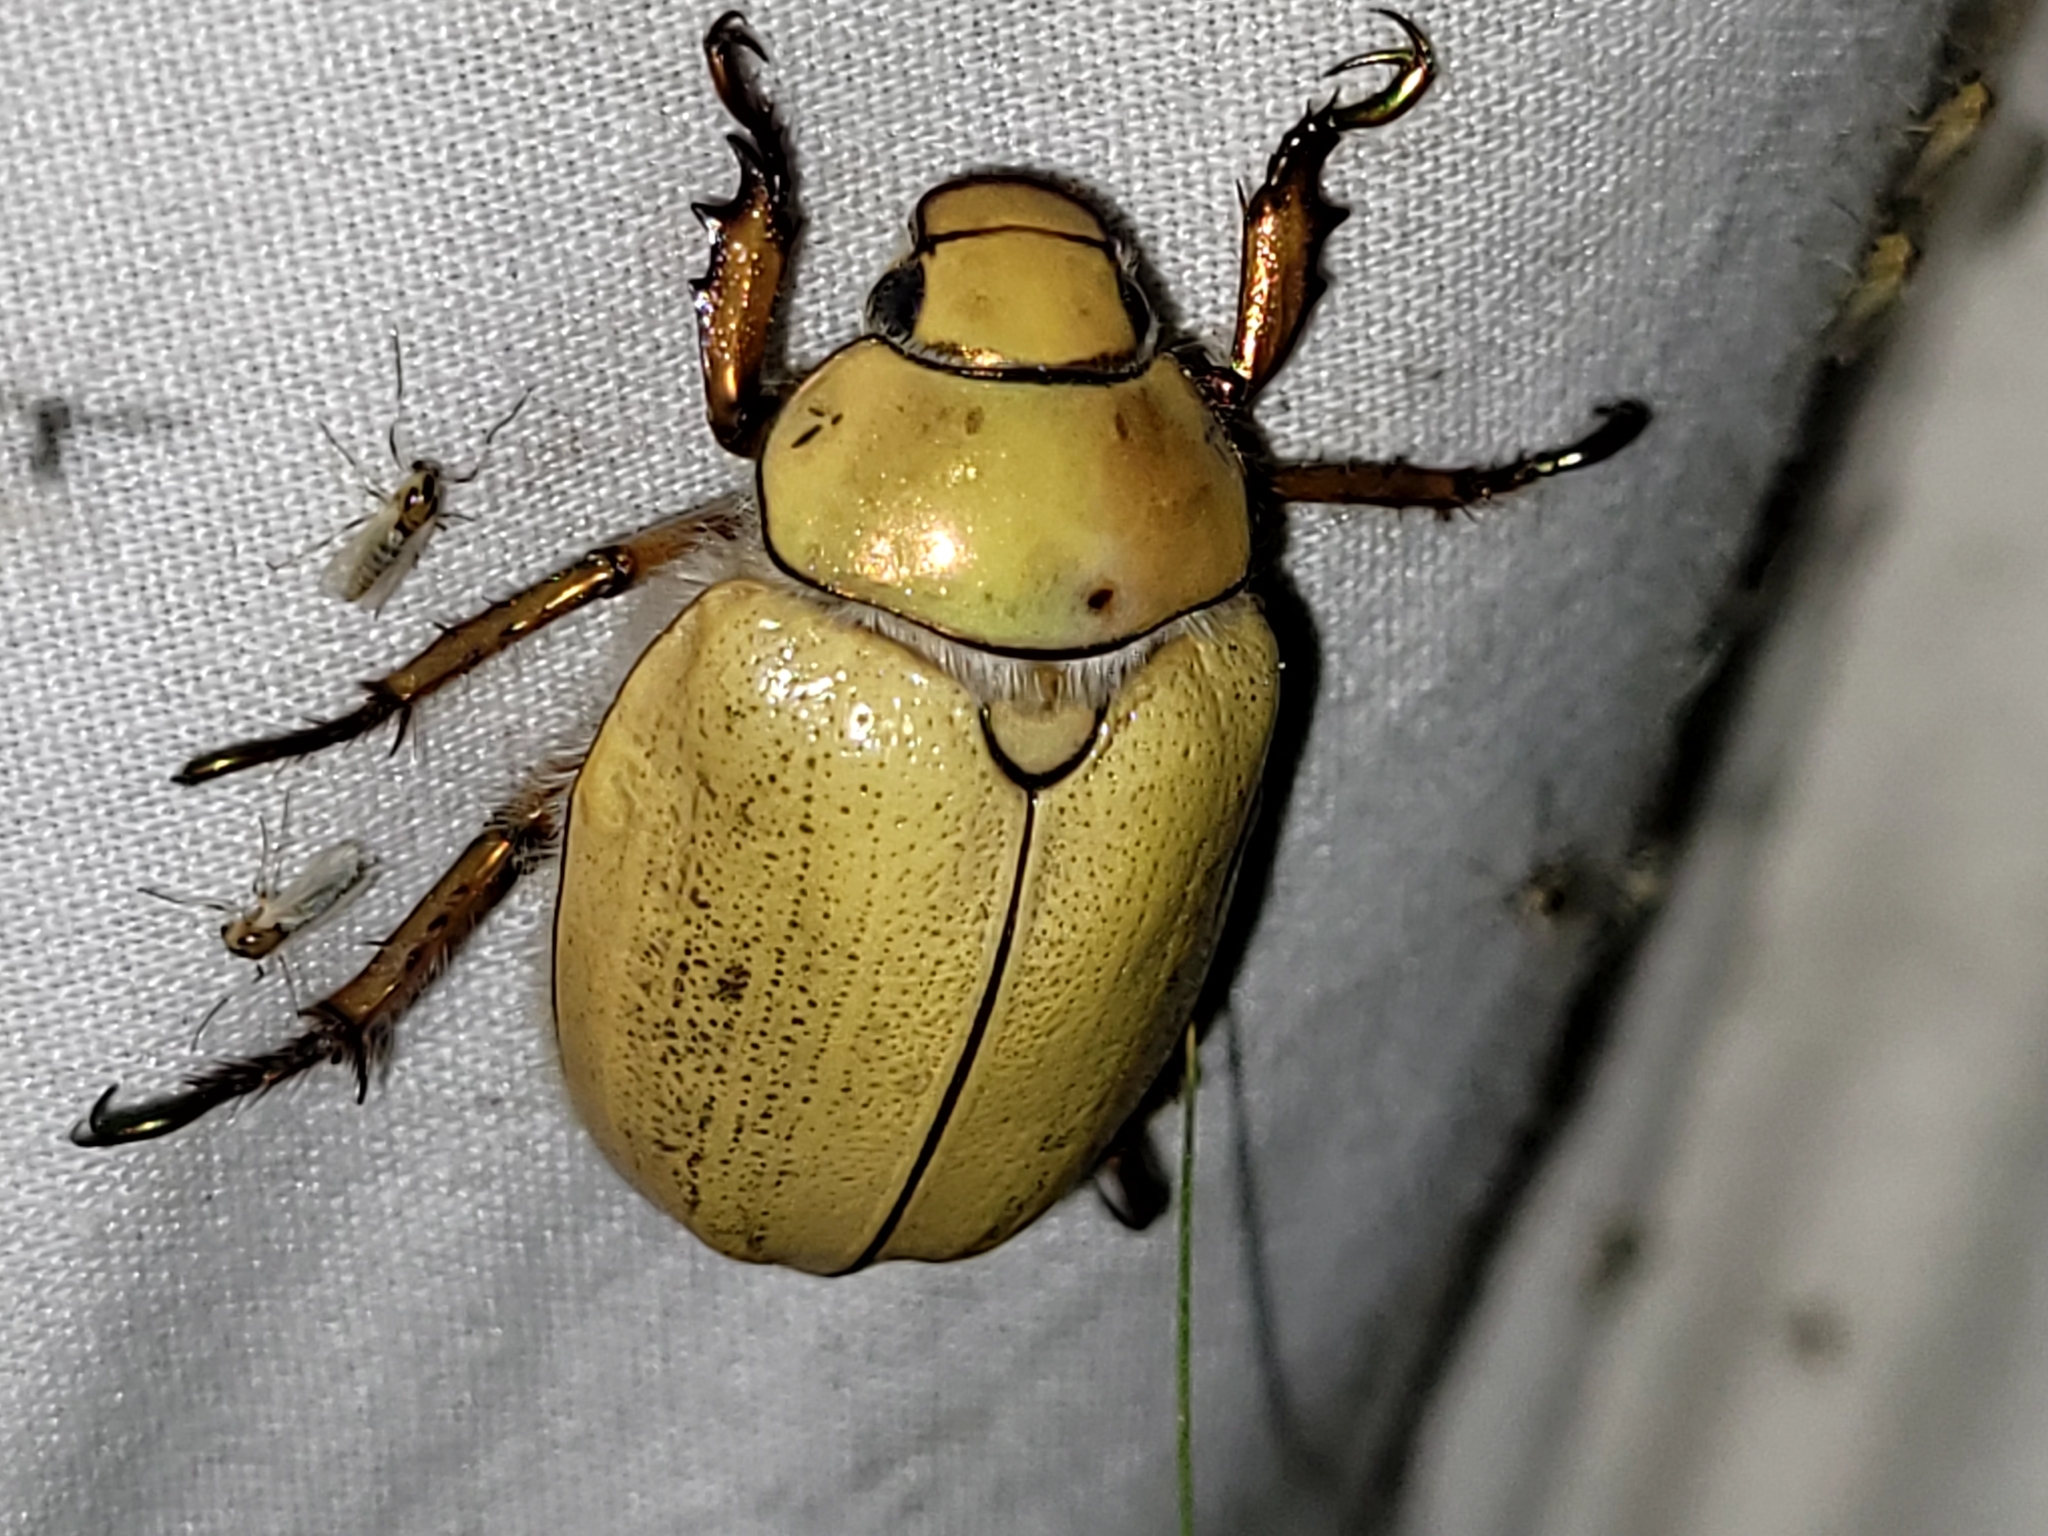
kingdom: Animalia
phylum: Arthropoda
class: Insecta
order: Coleoptera
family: Scarabaeidae
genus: Cotalpa
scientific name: Cotalpa lanigera
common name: Goldsmith beetle
